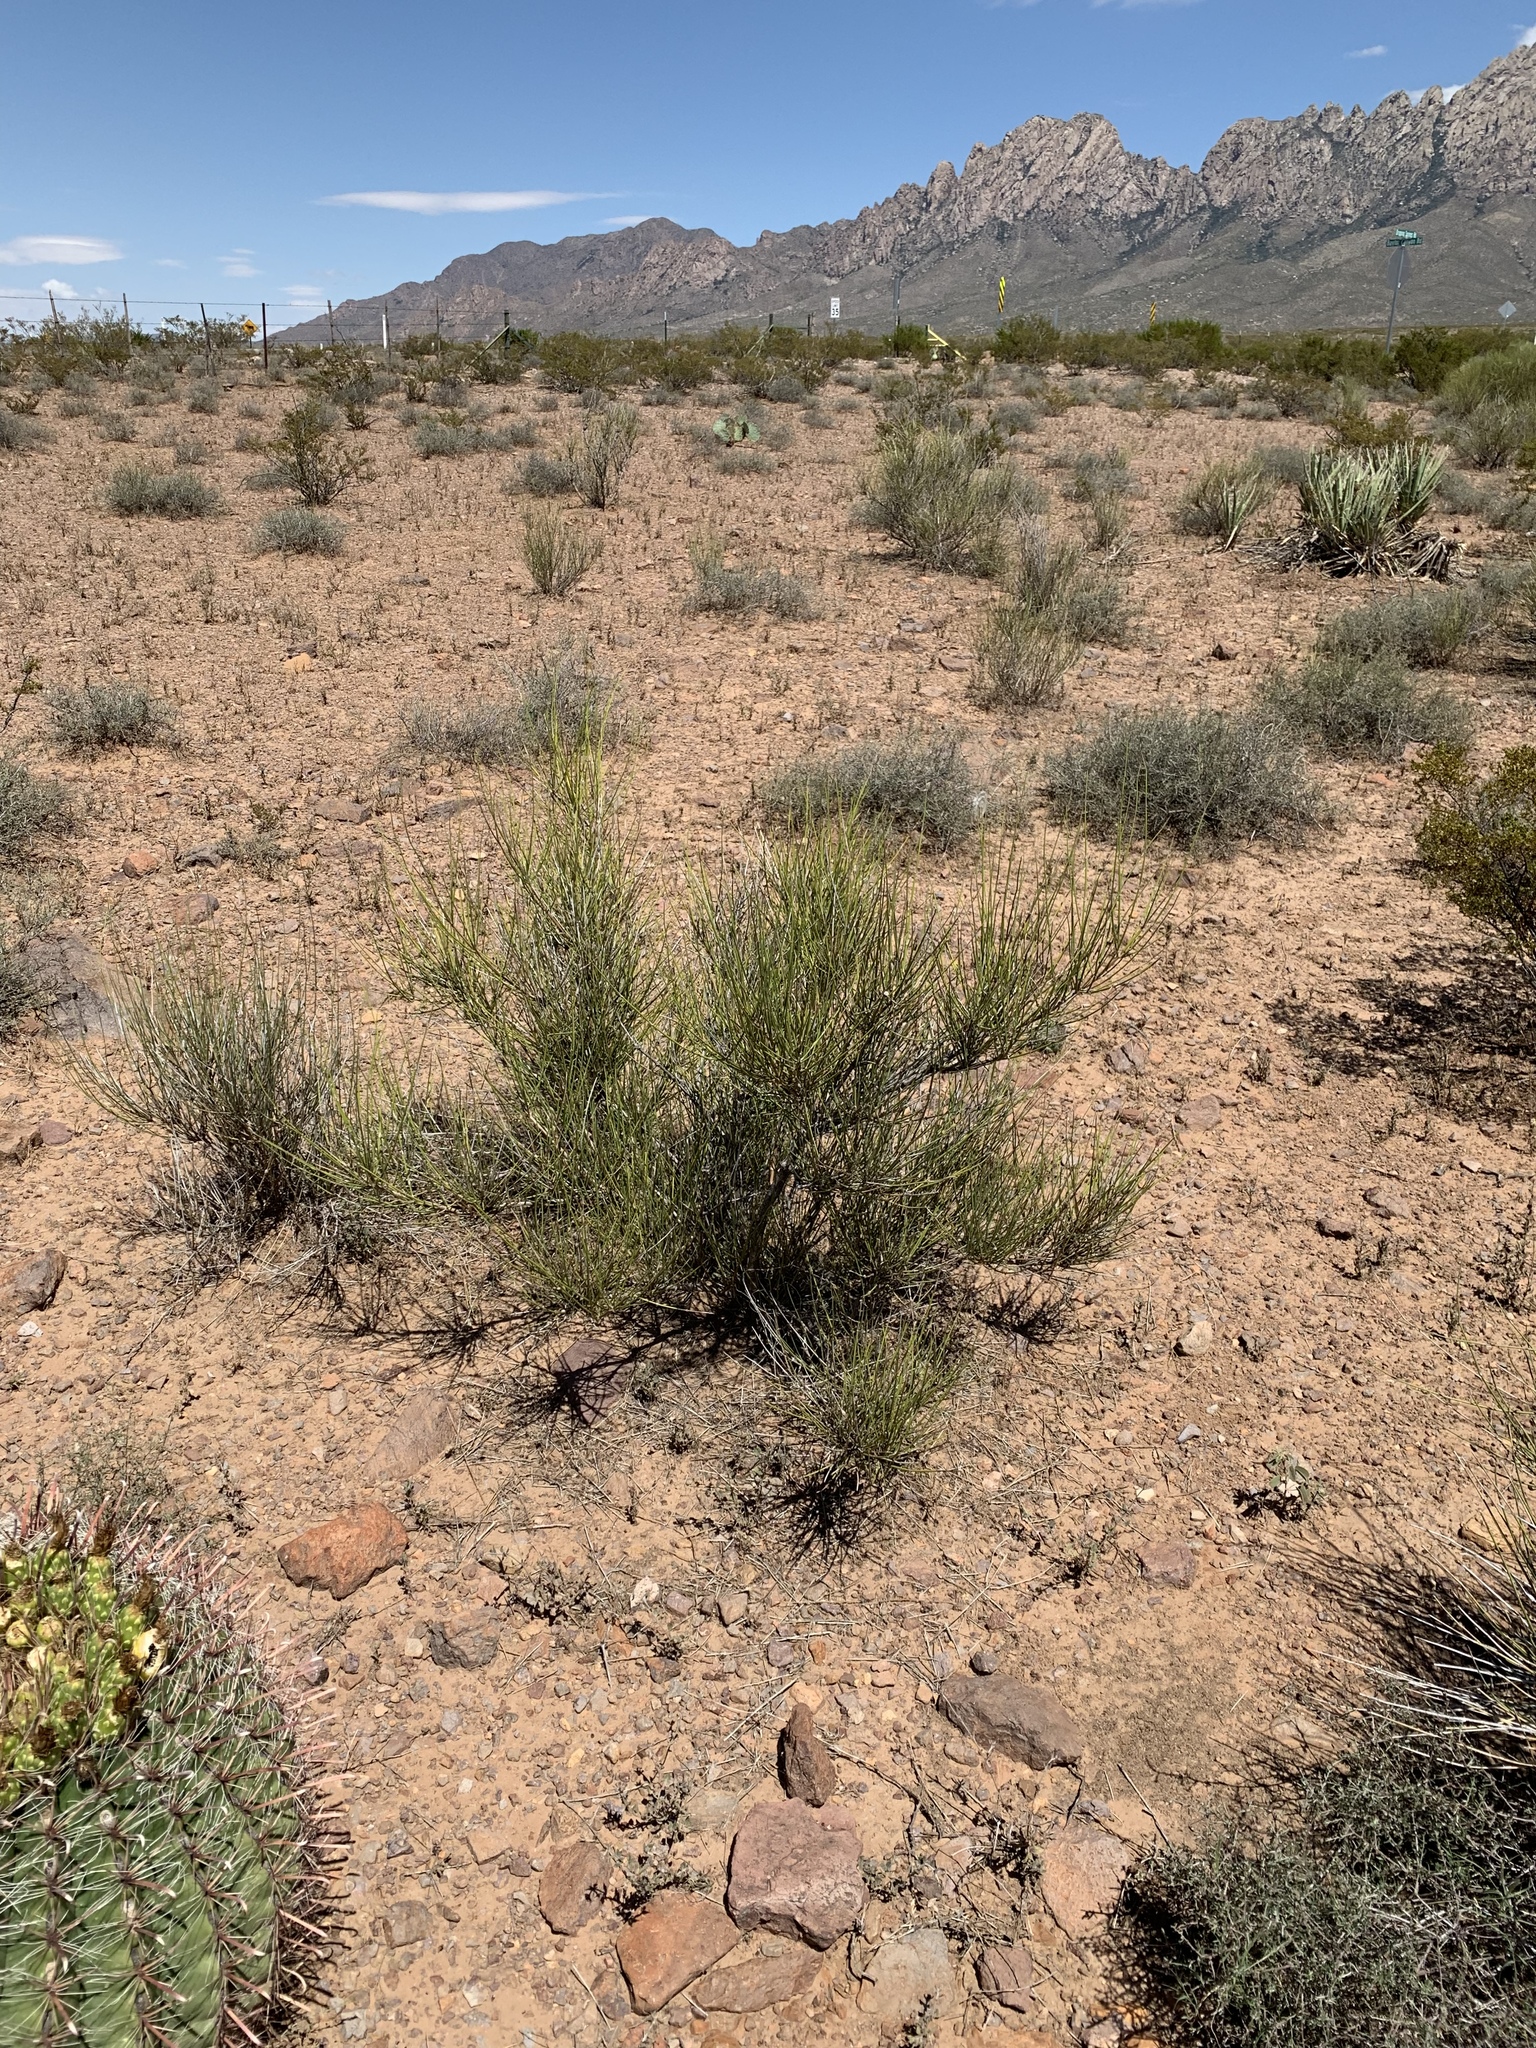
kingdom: Plantae
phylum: Tracheophyta
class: Gnetopsida
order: Ephedrales
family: Ephedraceae
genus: Ephedra
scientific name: Ephedra trifurca
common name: Mexican-tea
